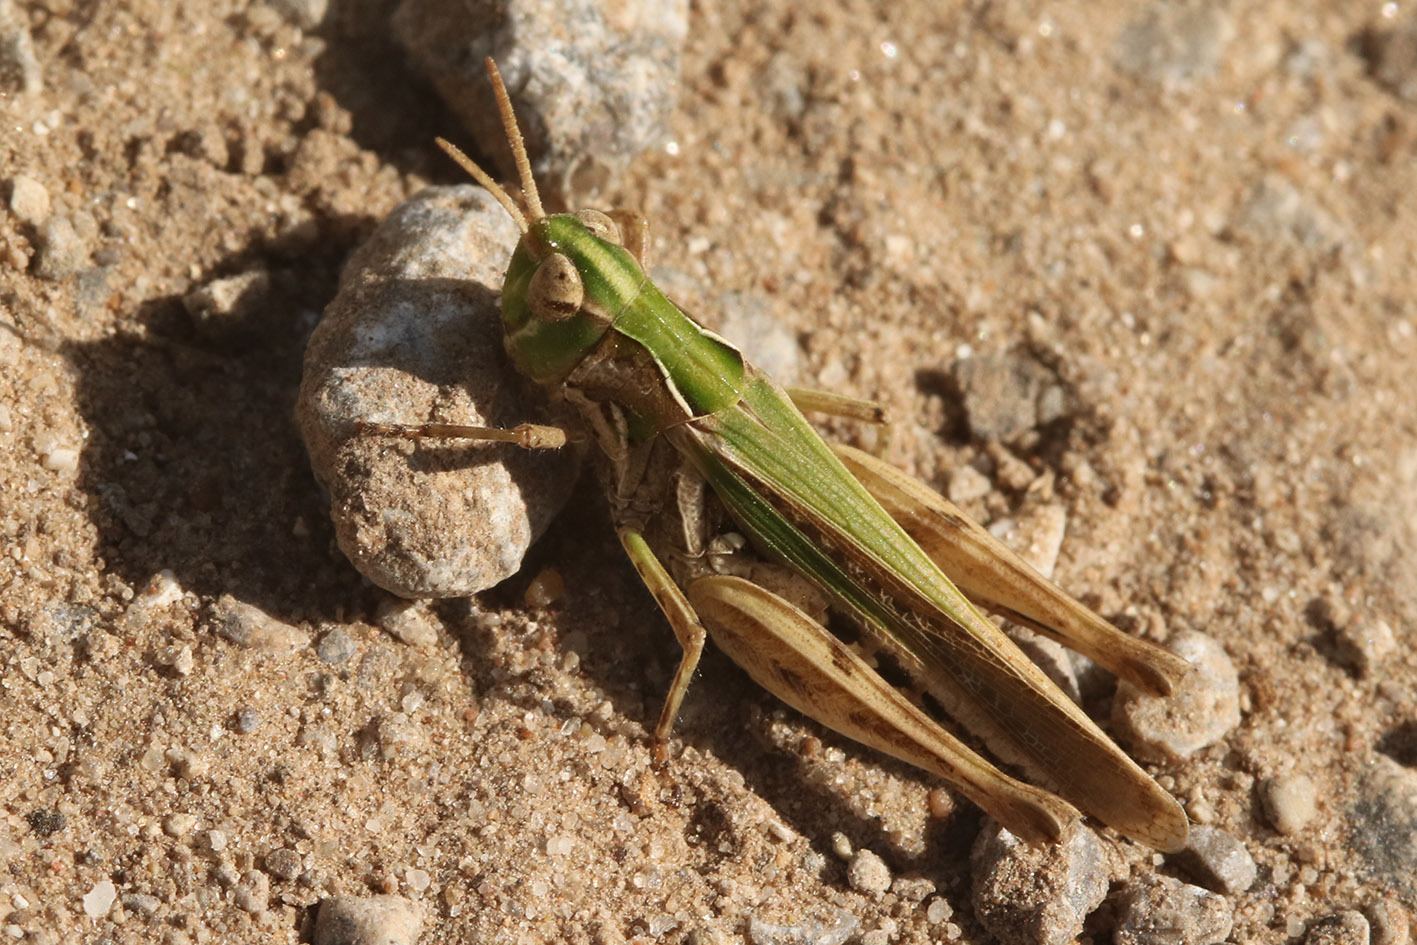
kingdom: Animalia
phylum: Arthropoda
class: Insecta
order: Orthoptera
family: Acrididae
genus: Orphulella
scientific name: Orphulella punctata
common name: Slant-faced grasshopper
